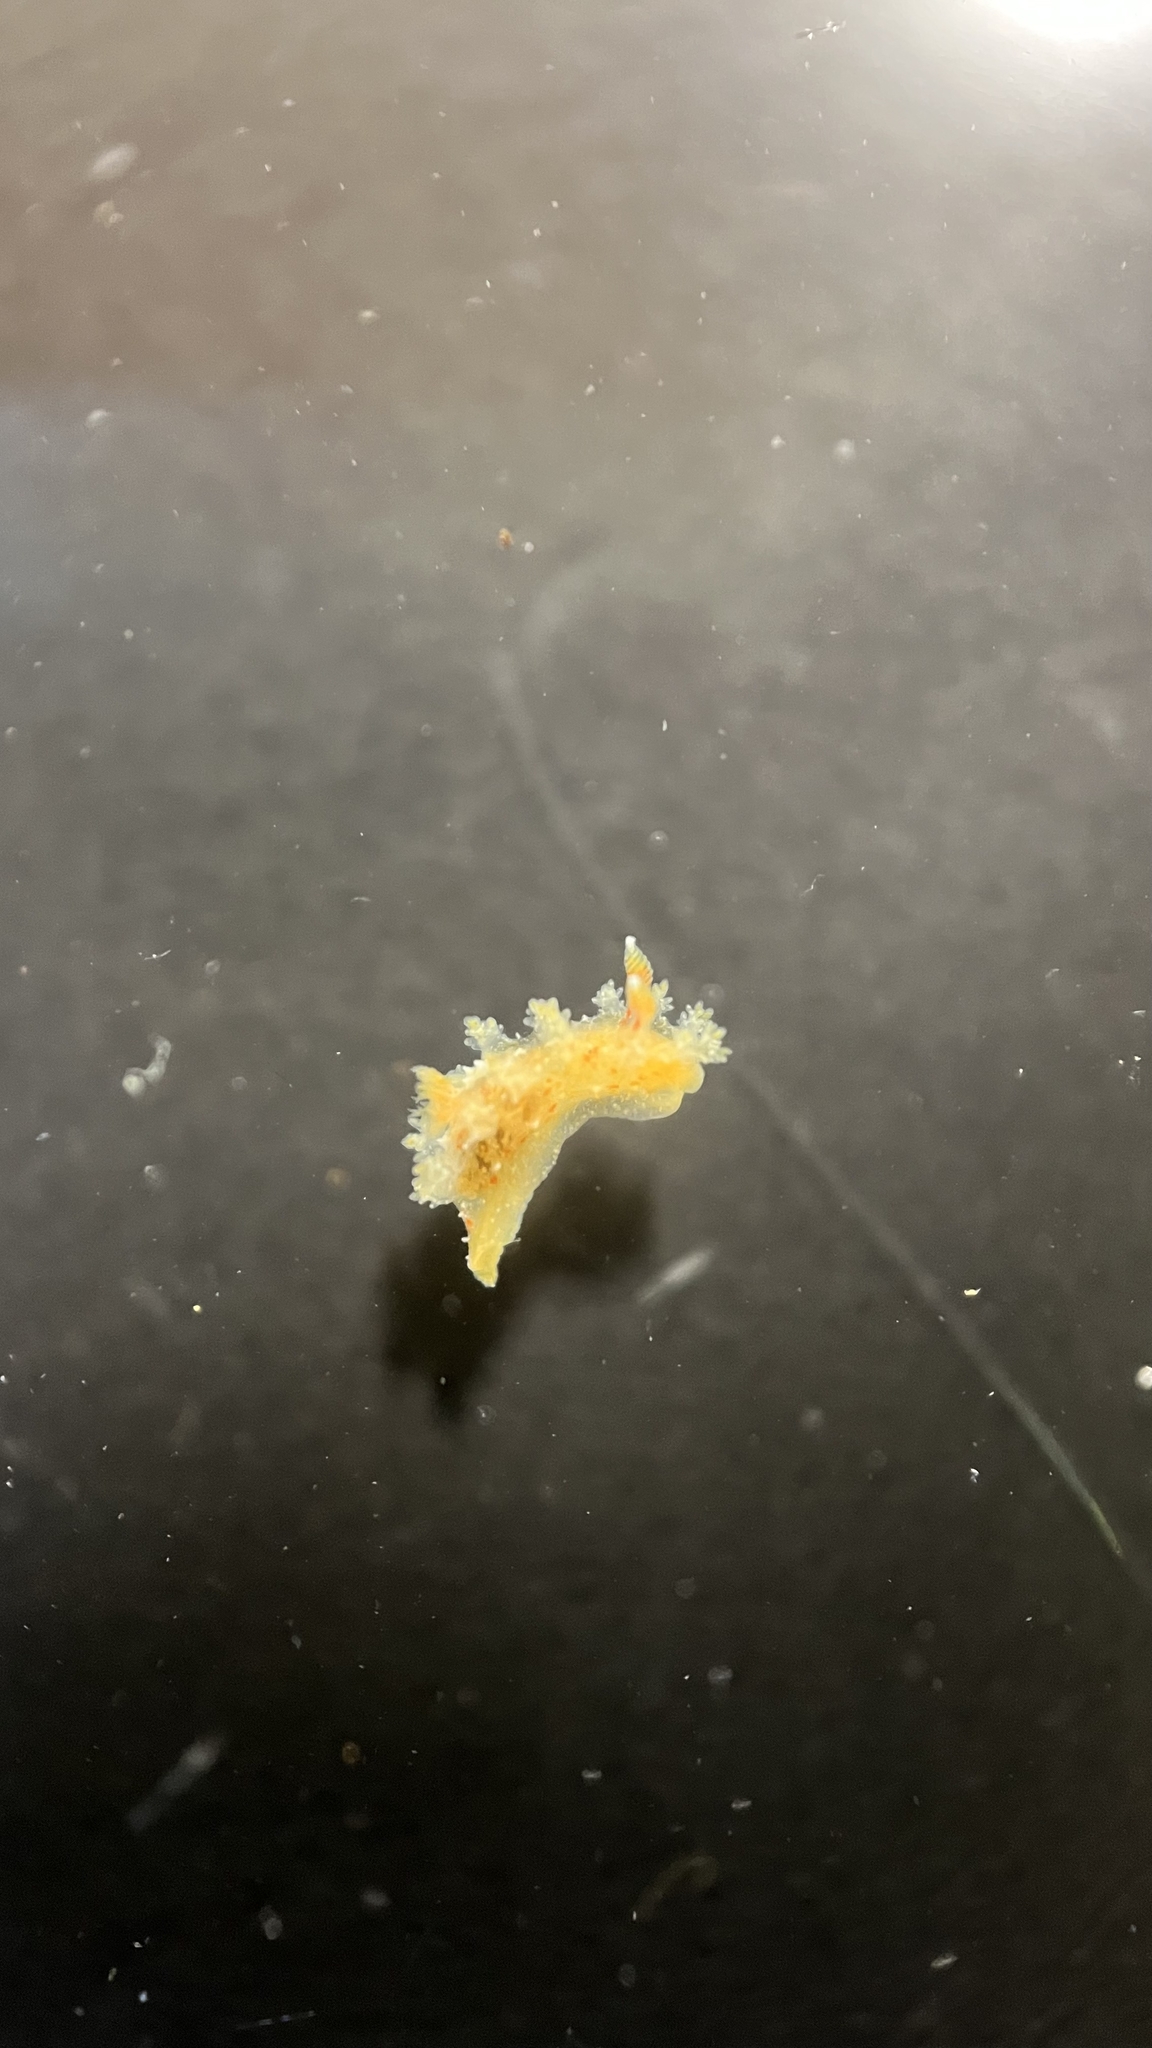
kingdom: Animalia
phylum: Mollusca
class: Gastropoda
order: Nudibranchia
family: Polyceridae
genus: Kaloplocamus
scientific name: Kaloplocamus ramosus
